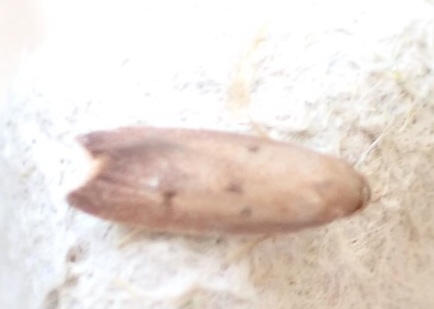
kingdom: Animalia
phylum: Arthropoda
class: Insecta
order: Lepidoptera
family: Oecophoridae
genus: Tachystola
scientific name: Tachystola acroxantha
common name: Ruddy streak
